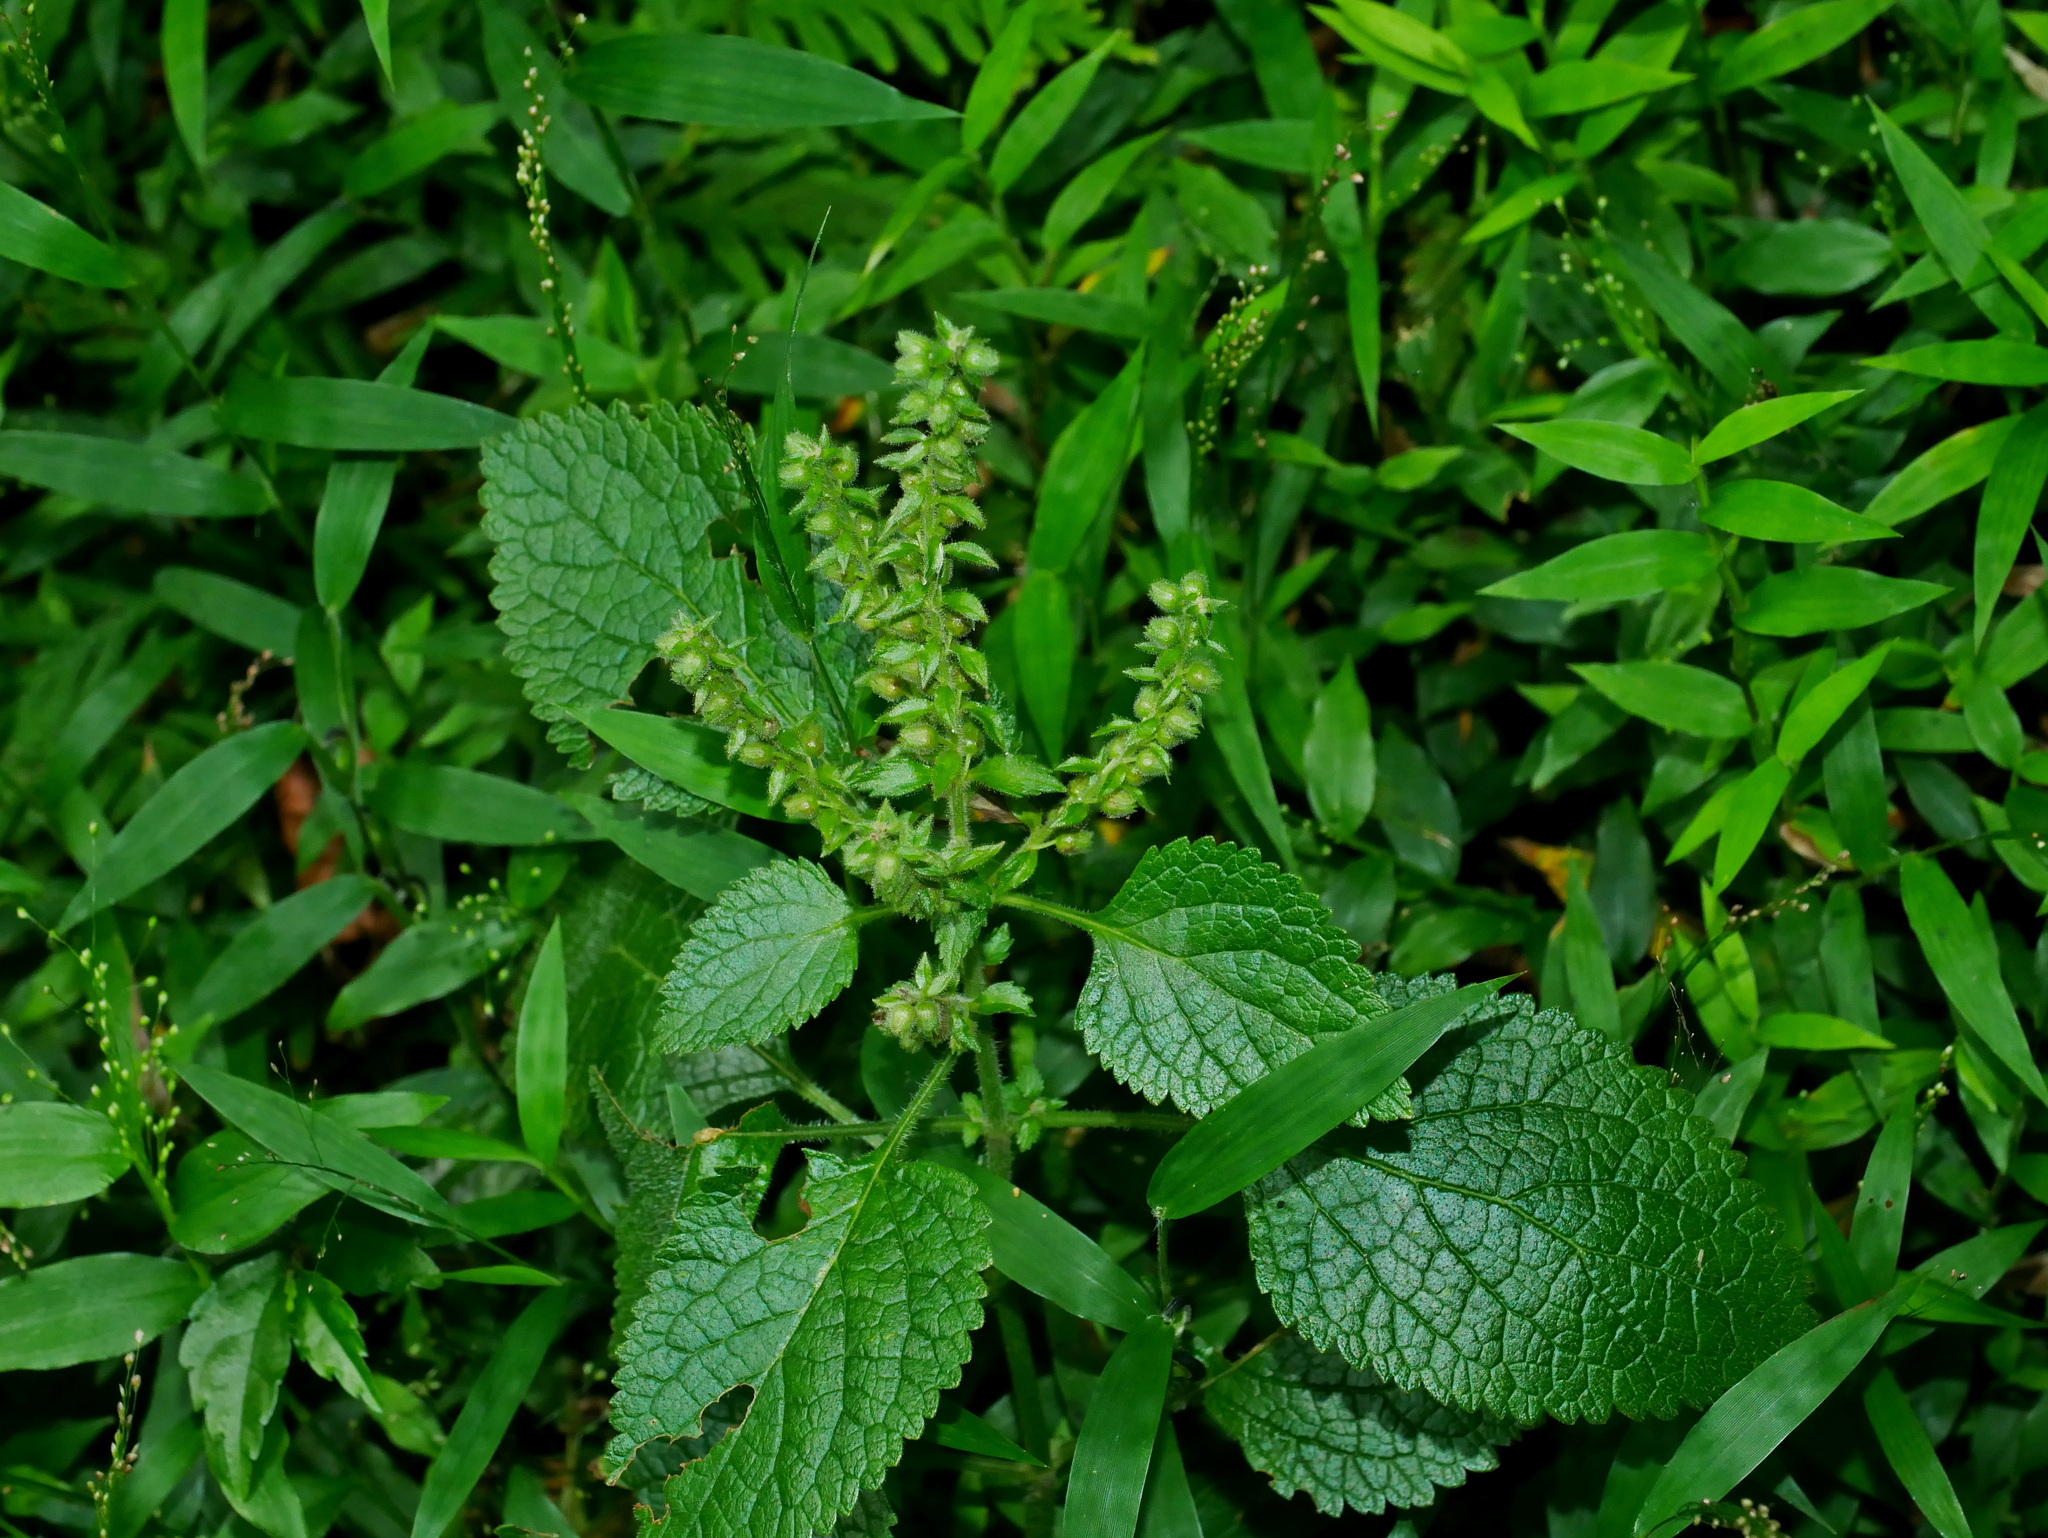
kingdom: Plantae
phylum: Tracheophyta
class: Magnoliopsida
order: Lamiales
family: Lamiaceae
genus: Teucrium
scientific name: Teucrium viscidum
